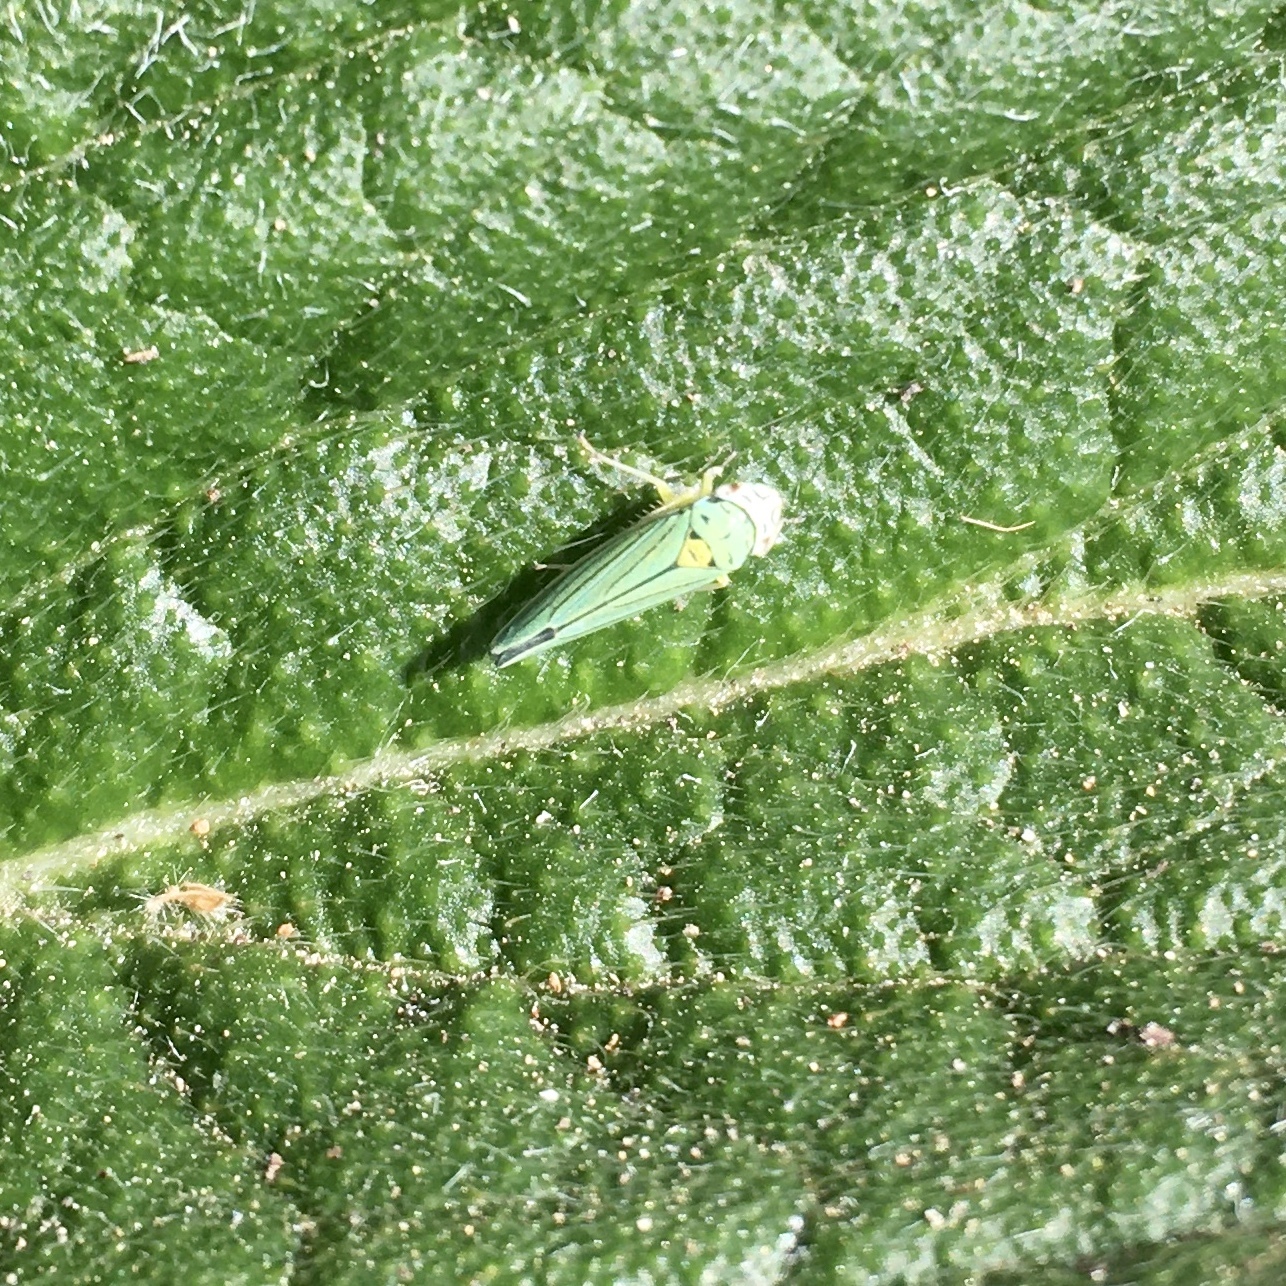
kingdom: Animalia
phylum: Arthropoda
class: Insecta
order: Hemiptera
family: Cicadellidae
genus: Graphocephala
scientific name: Graphocephala atropunctata
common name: Blue-green sharpshooter
